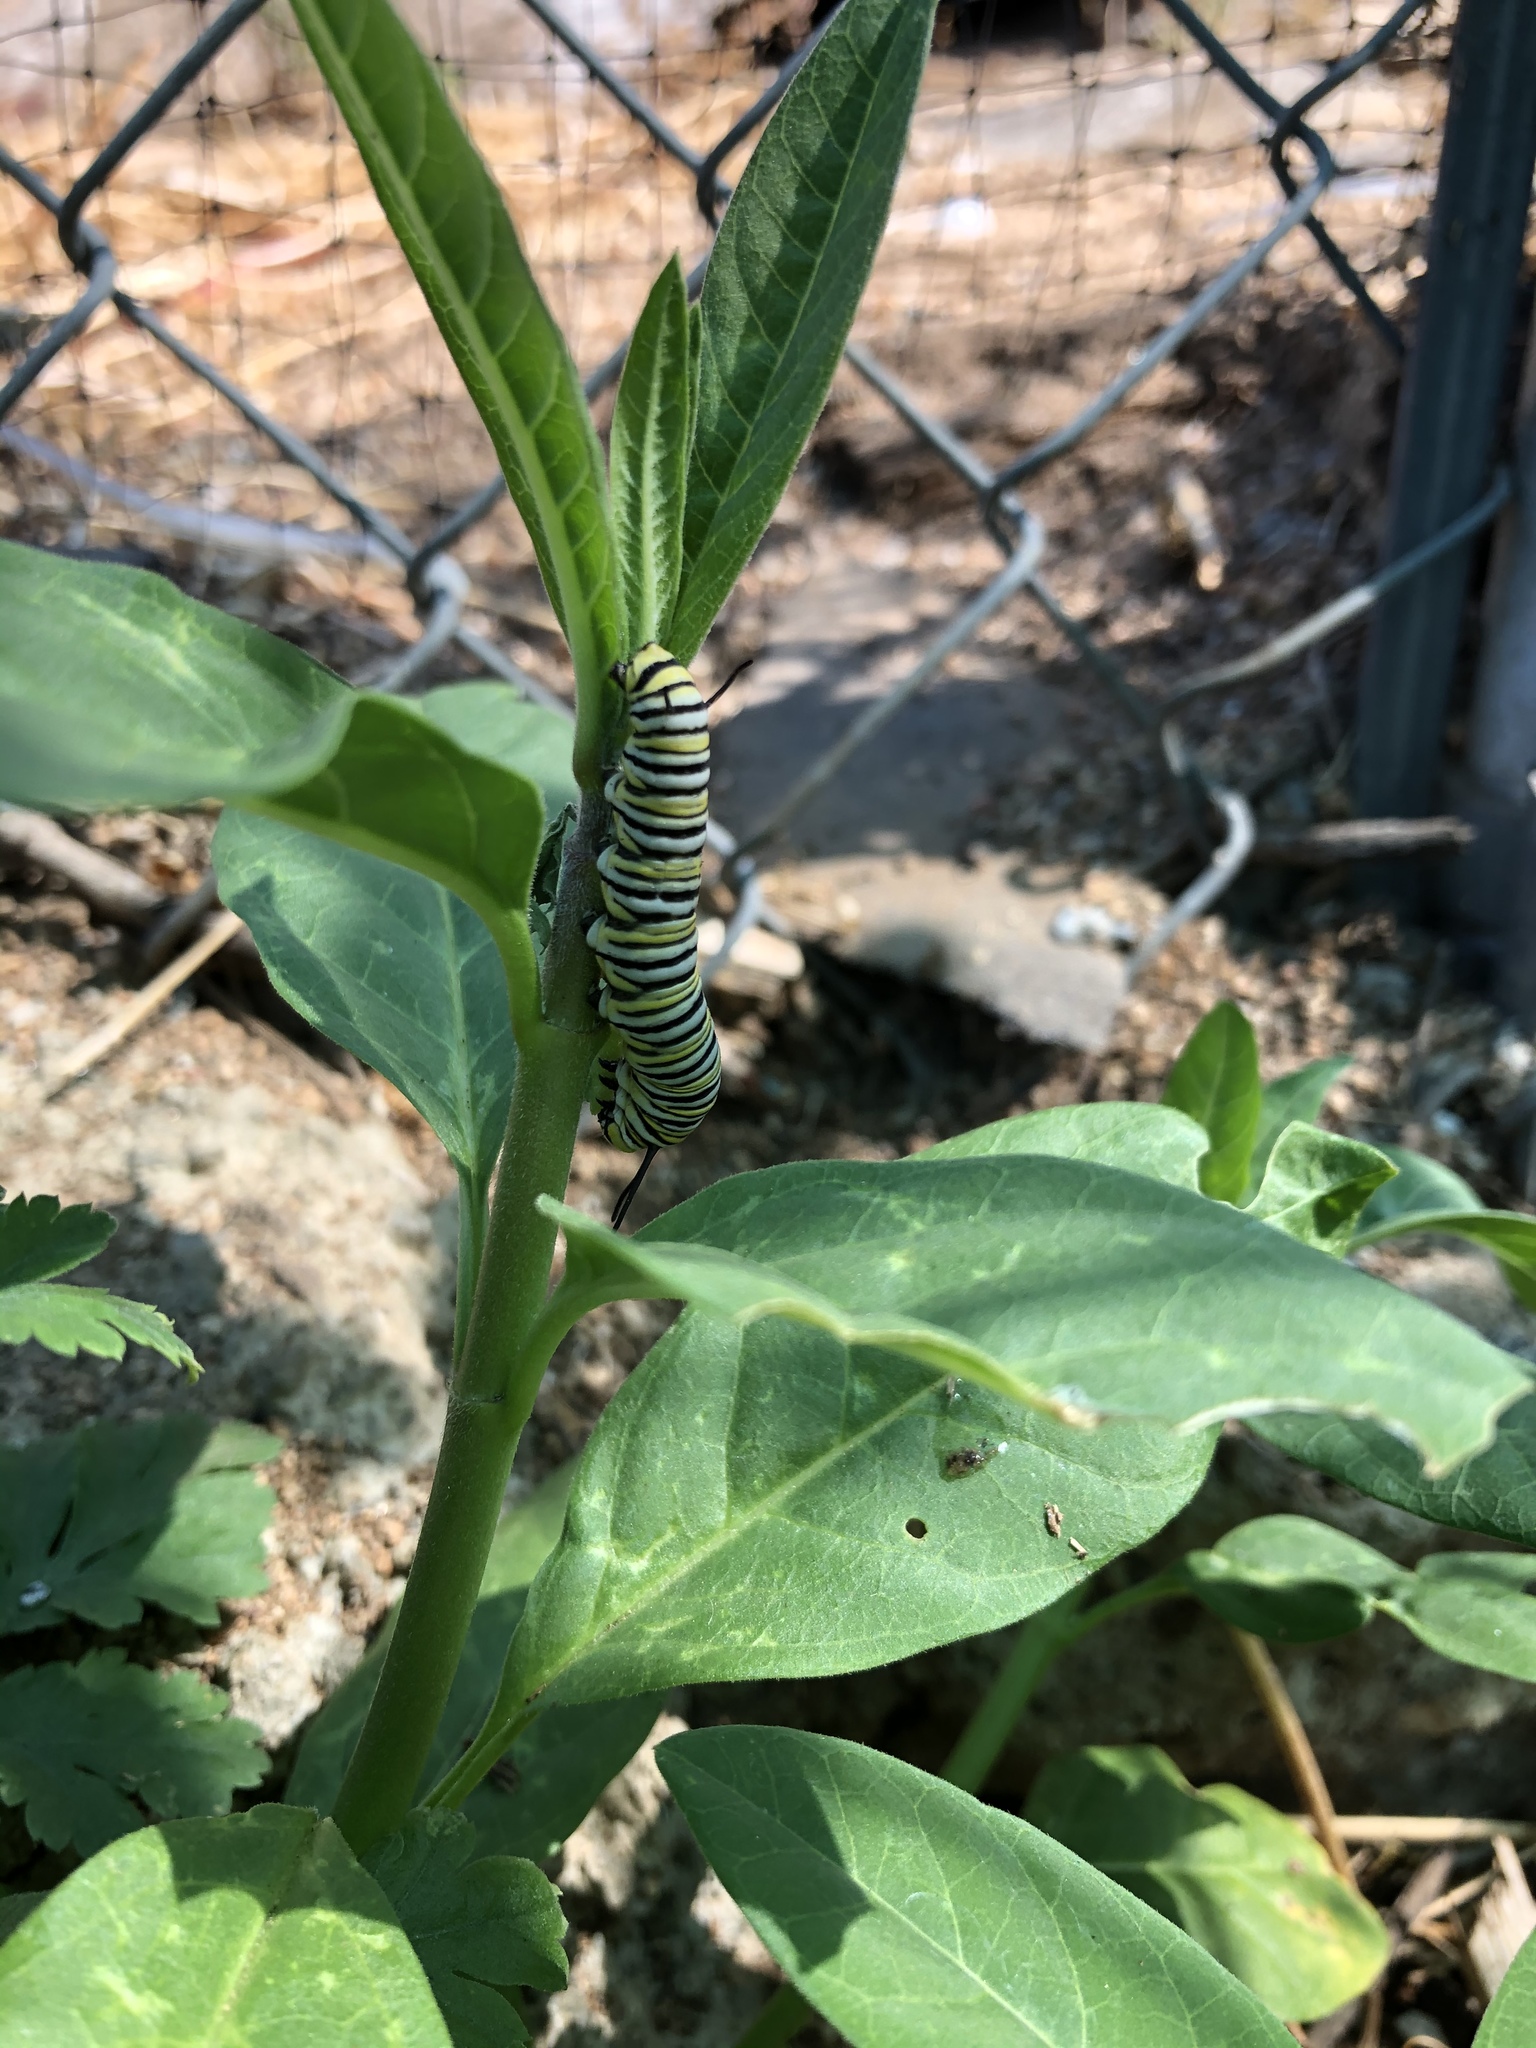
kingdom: Animalia
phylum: Arthropoda
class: Insecta
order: Lepidoptera
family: Nymphalidae
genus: Danaus
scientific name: Danaus plexippus
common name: Monarch
